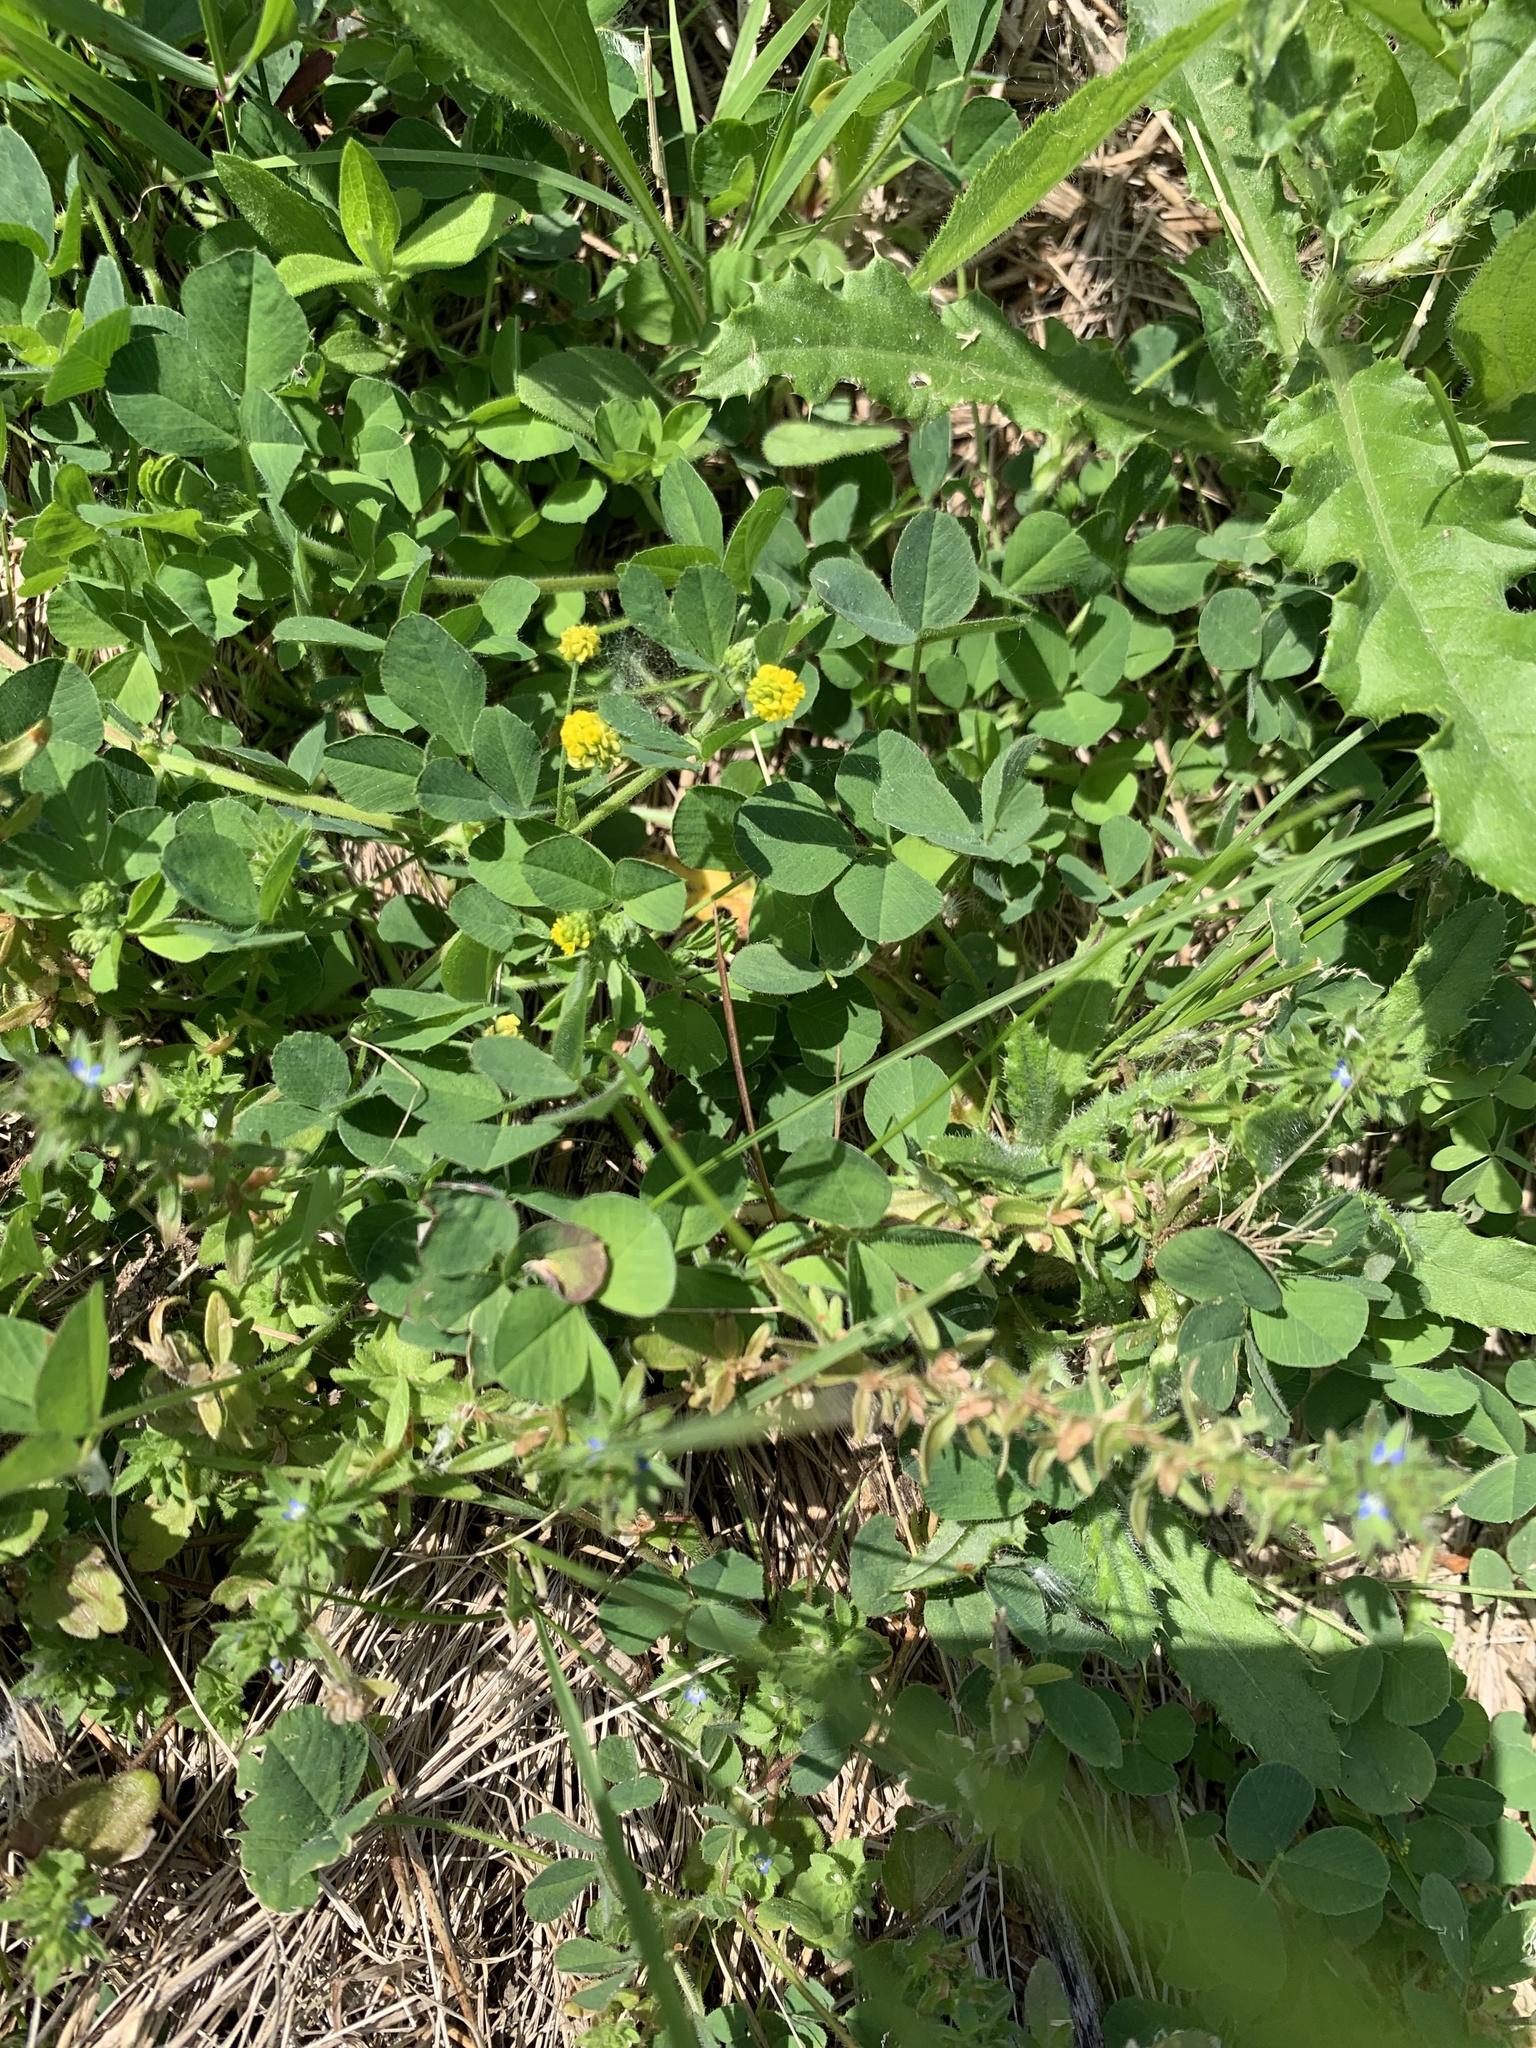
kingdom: Plantae
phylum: Tracheophyta
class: Magnoliopsida
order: Fabales
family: Fabaceae
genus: Medicago
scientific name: Medicago lupulina
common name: Black medick
